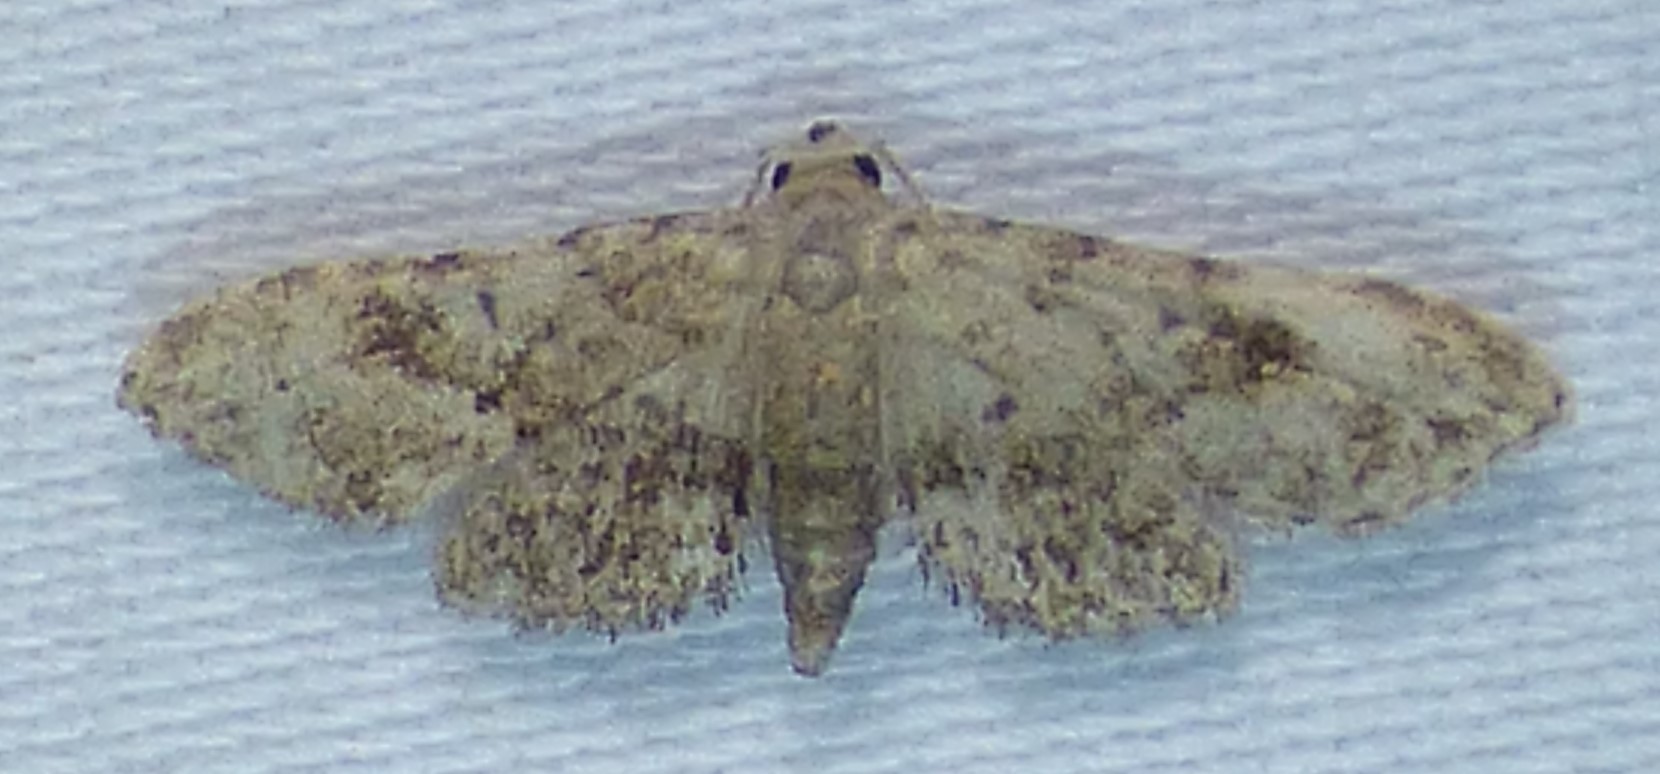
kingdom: Animalia
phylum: Arthropoda
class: Insecta
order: Lepidoptera
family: Erebidae
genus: Sigela
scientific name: Sigela brauneata
